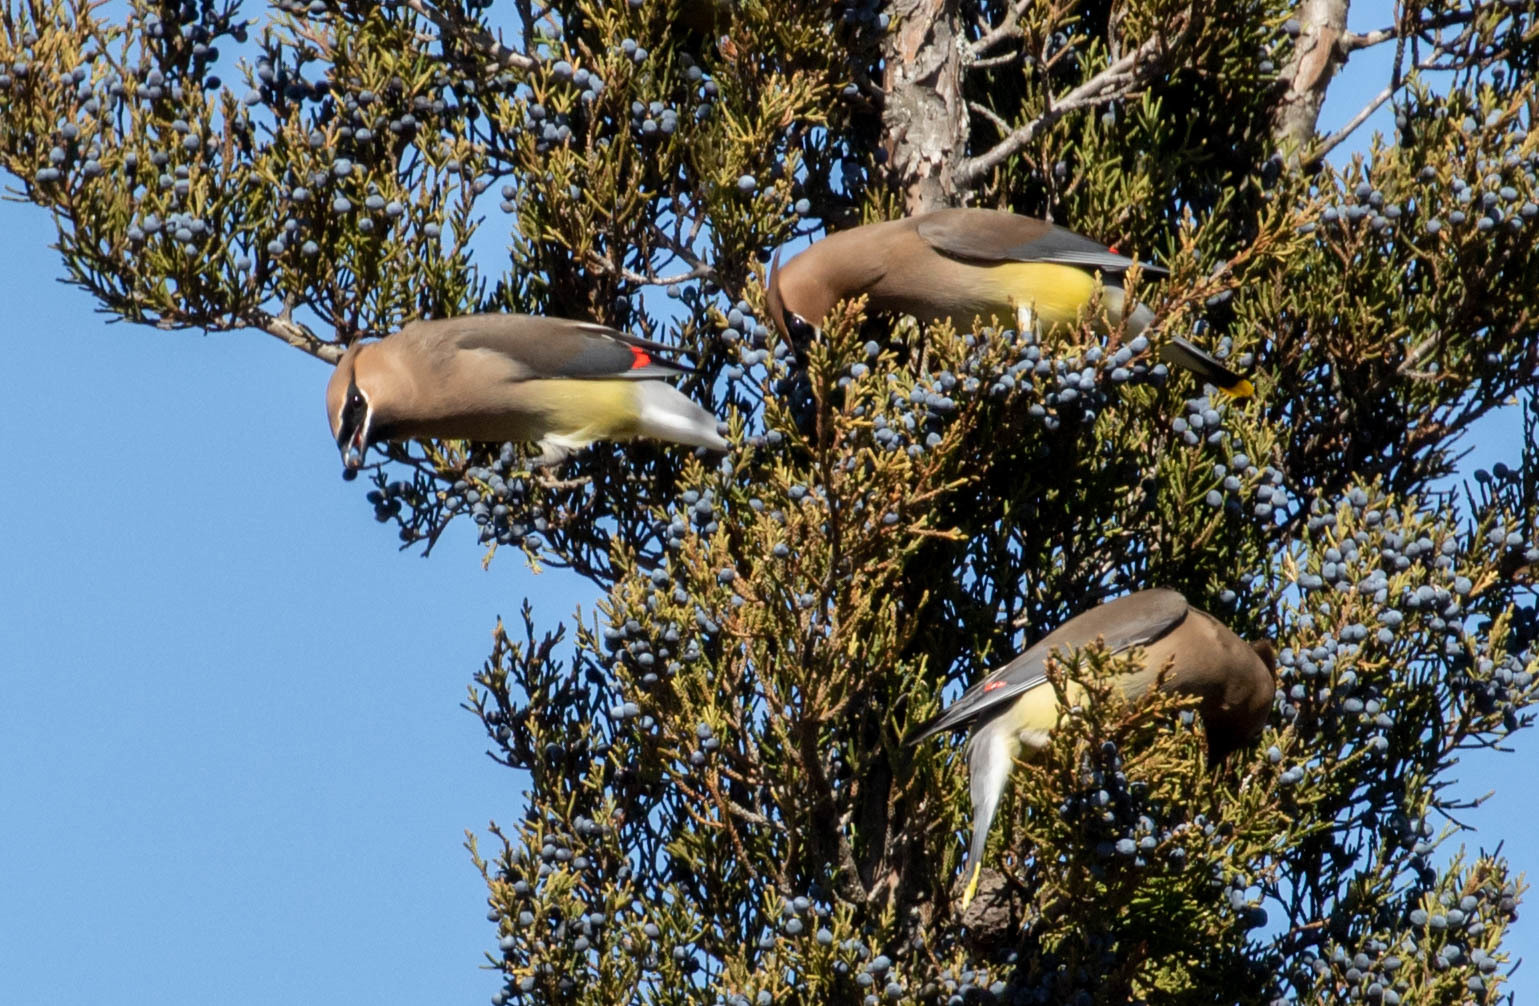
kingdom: Animalia
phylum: Chordata
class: Aves
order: Passeriformes
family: Bombycillidae
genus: Bombycilla
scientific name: Bombycilla cedrorum
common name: Cedar waxwing
